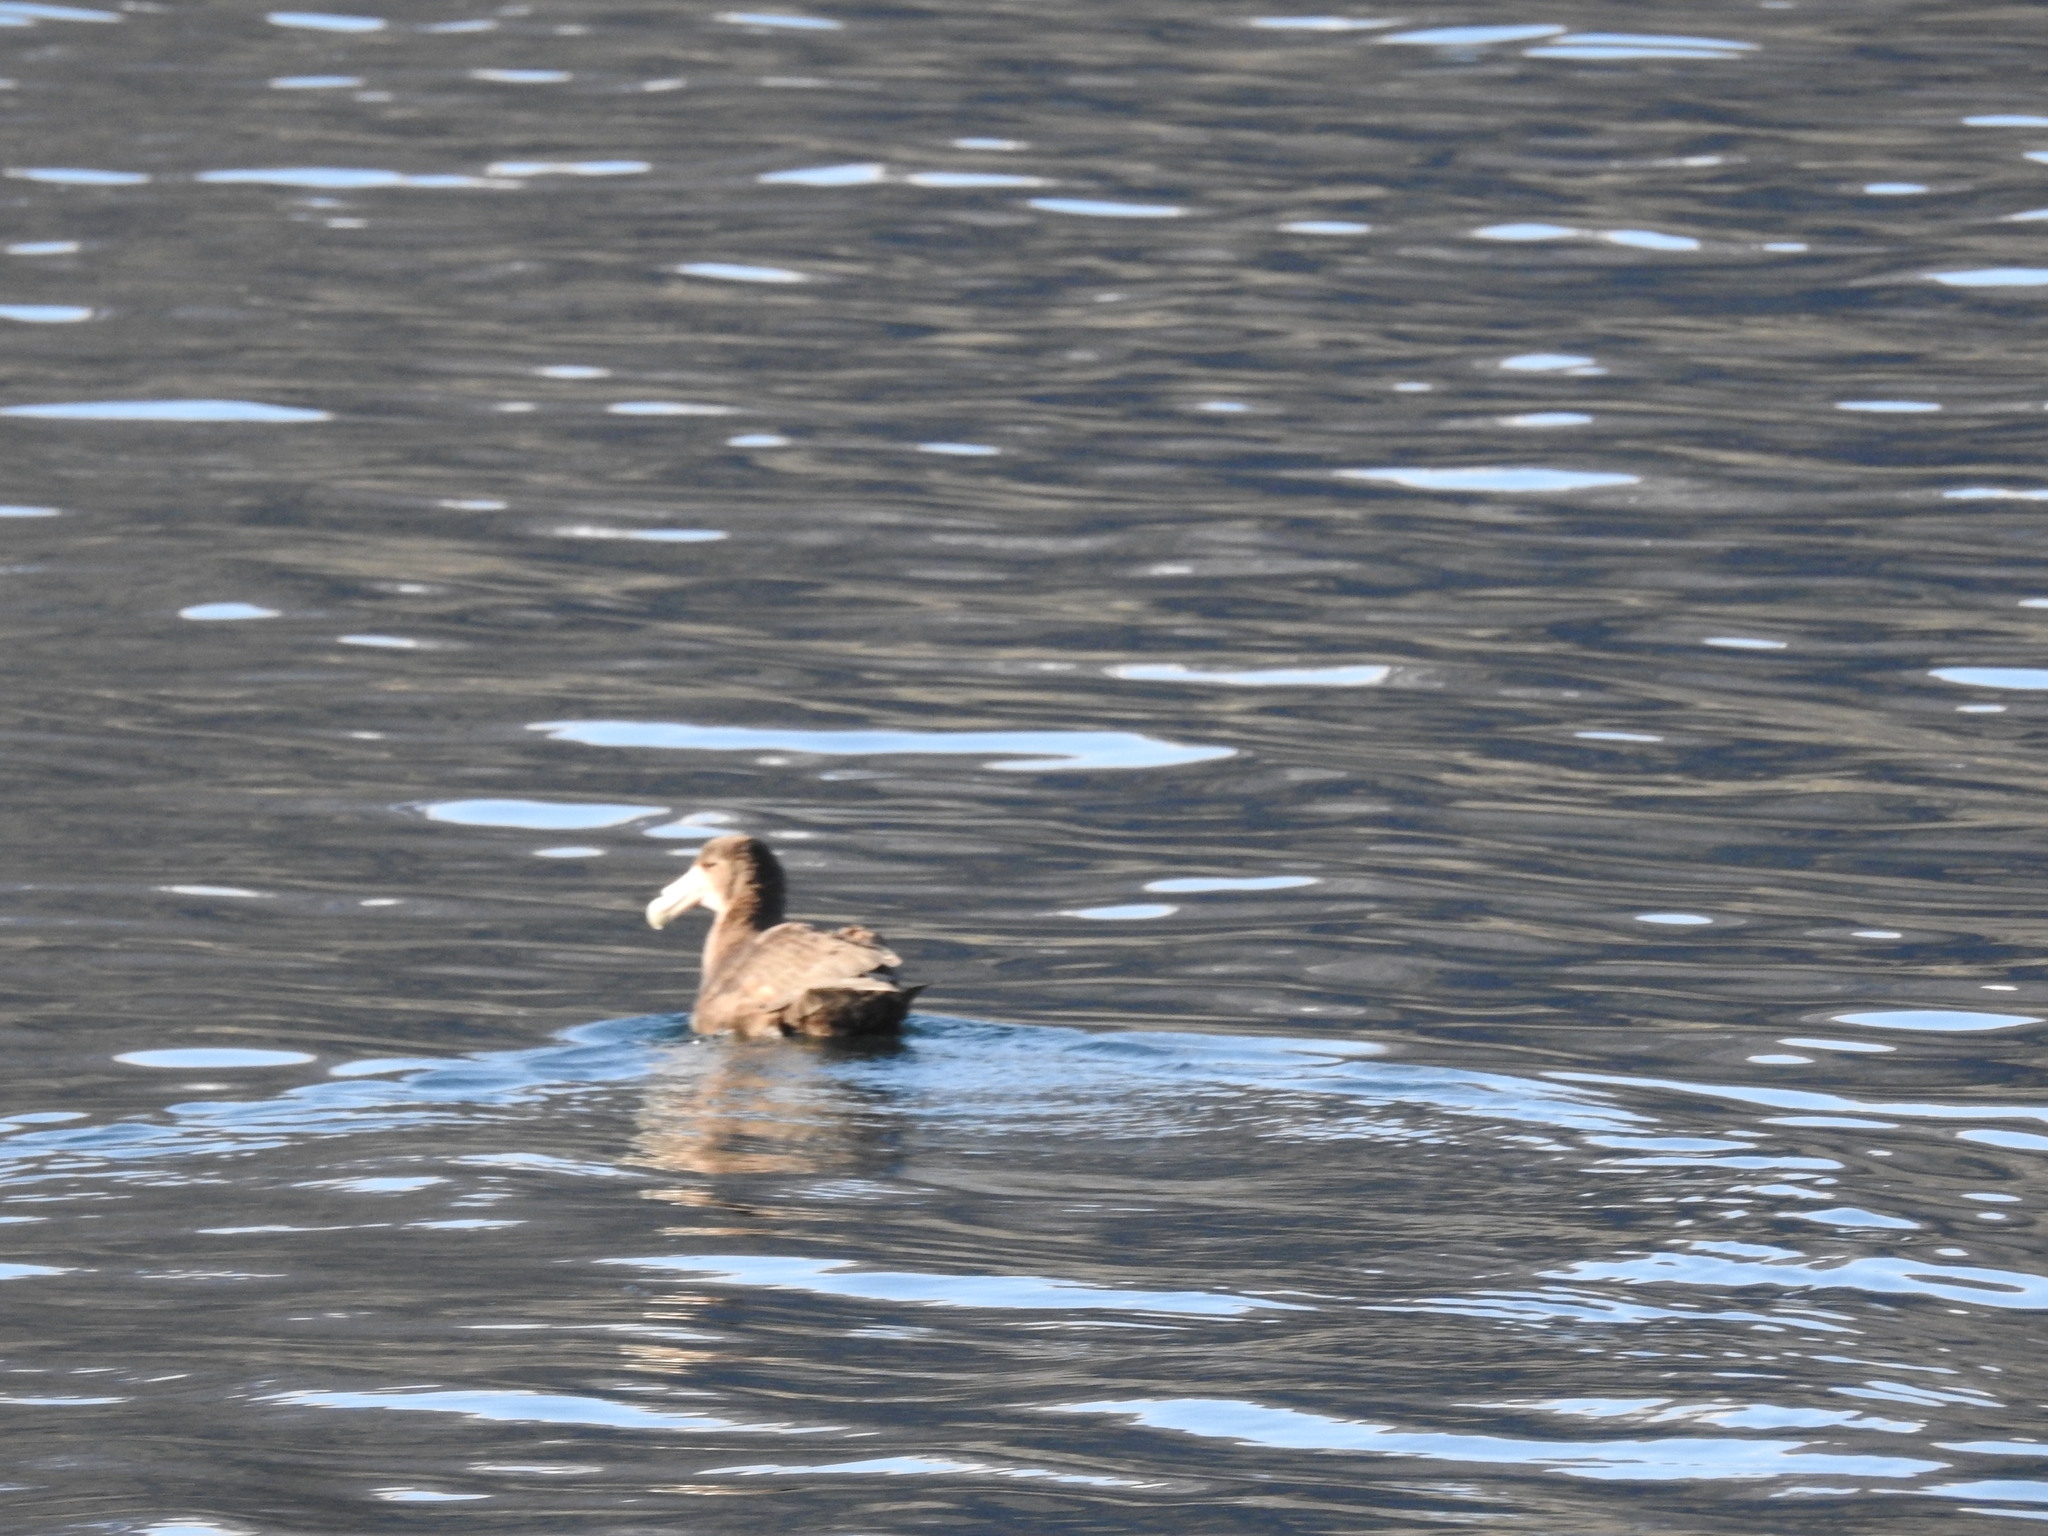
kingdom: Animalia
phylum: Chordata
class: Aves
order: Procellariiformes
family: Procellariidae
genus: Macronectes
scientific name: Macronectes giganteus
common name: Southern giant petrel
